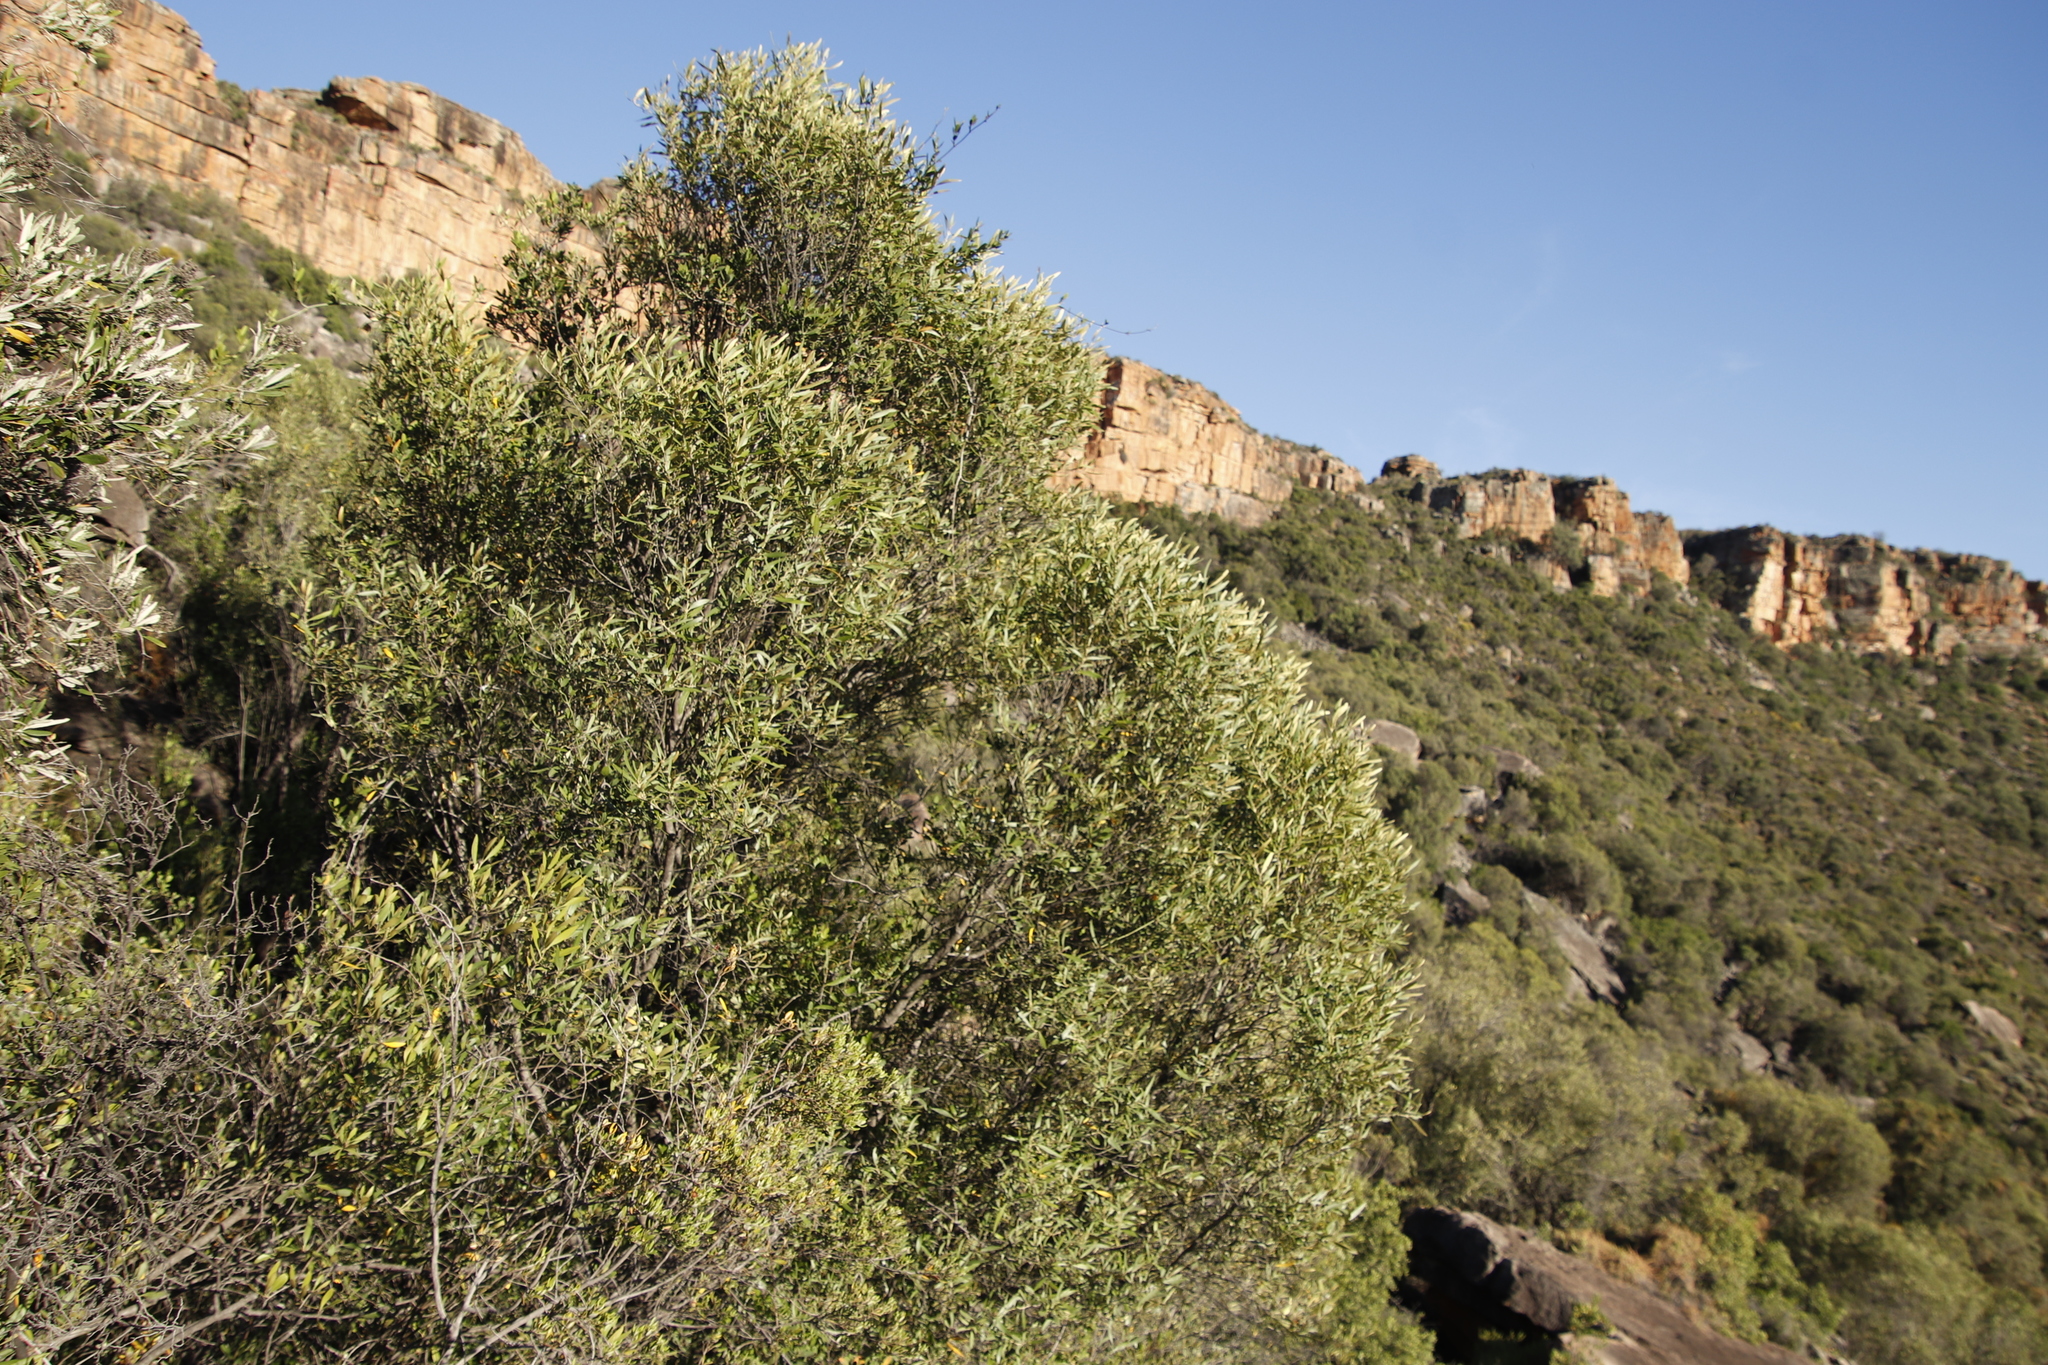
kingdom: Plantae
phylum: Tracheophyta
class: Magnoliopsida
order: Lamiales
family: Oleaceae
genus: Olea
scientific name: Olea europaea
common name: Olive
